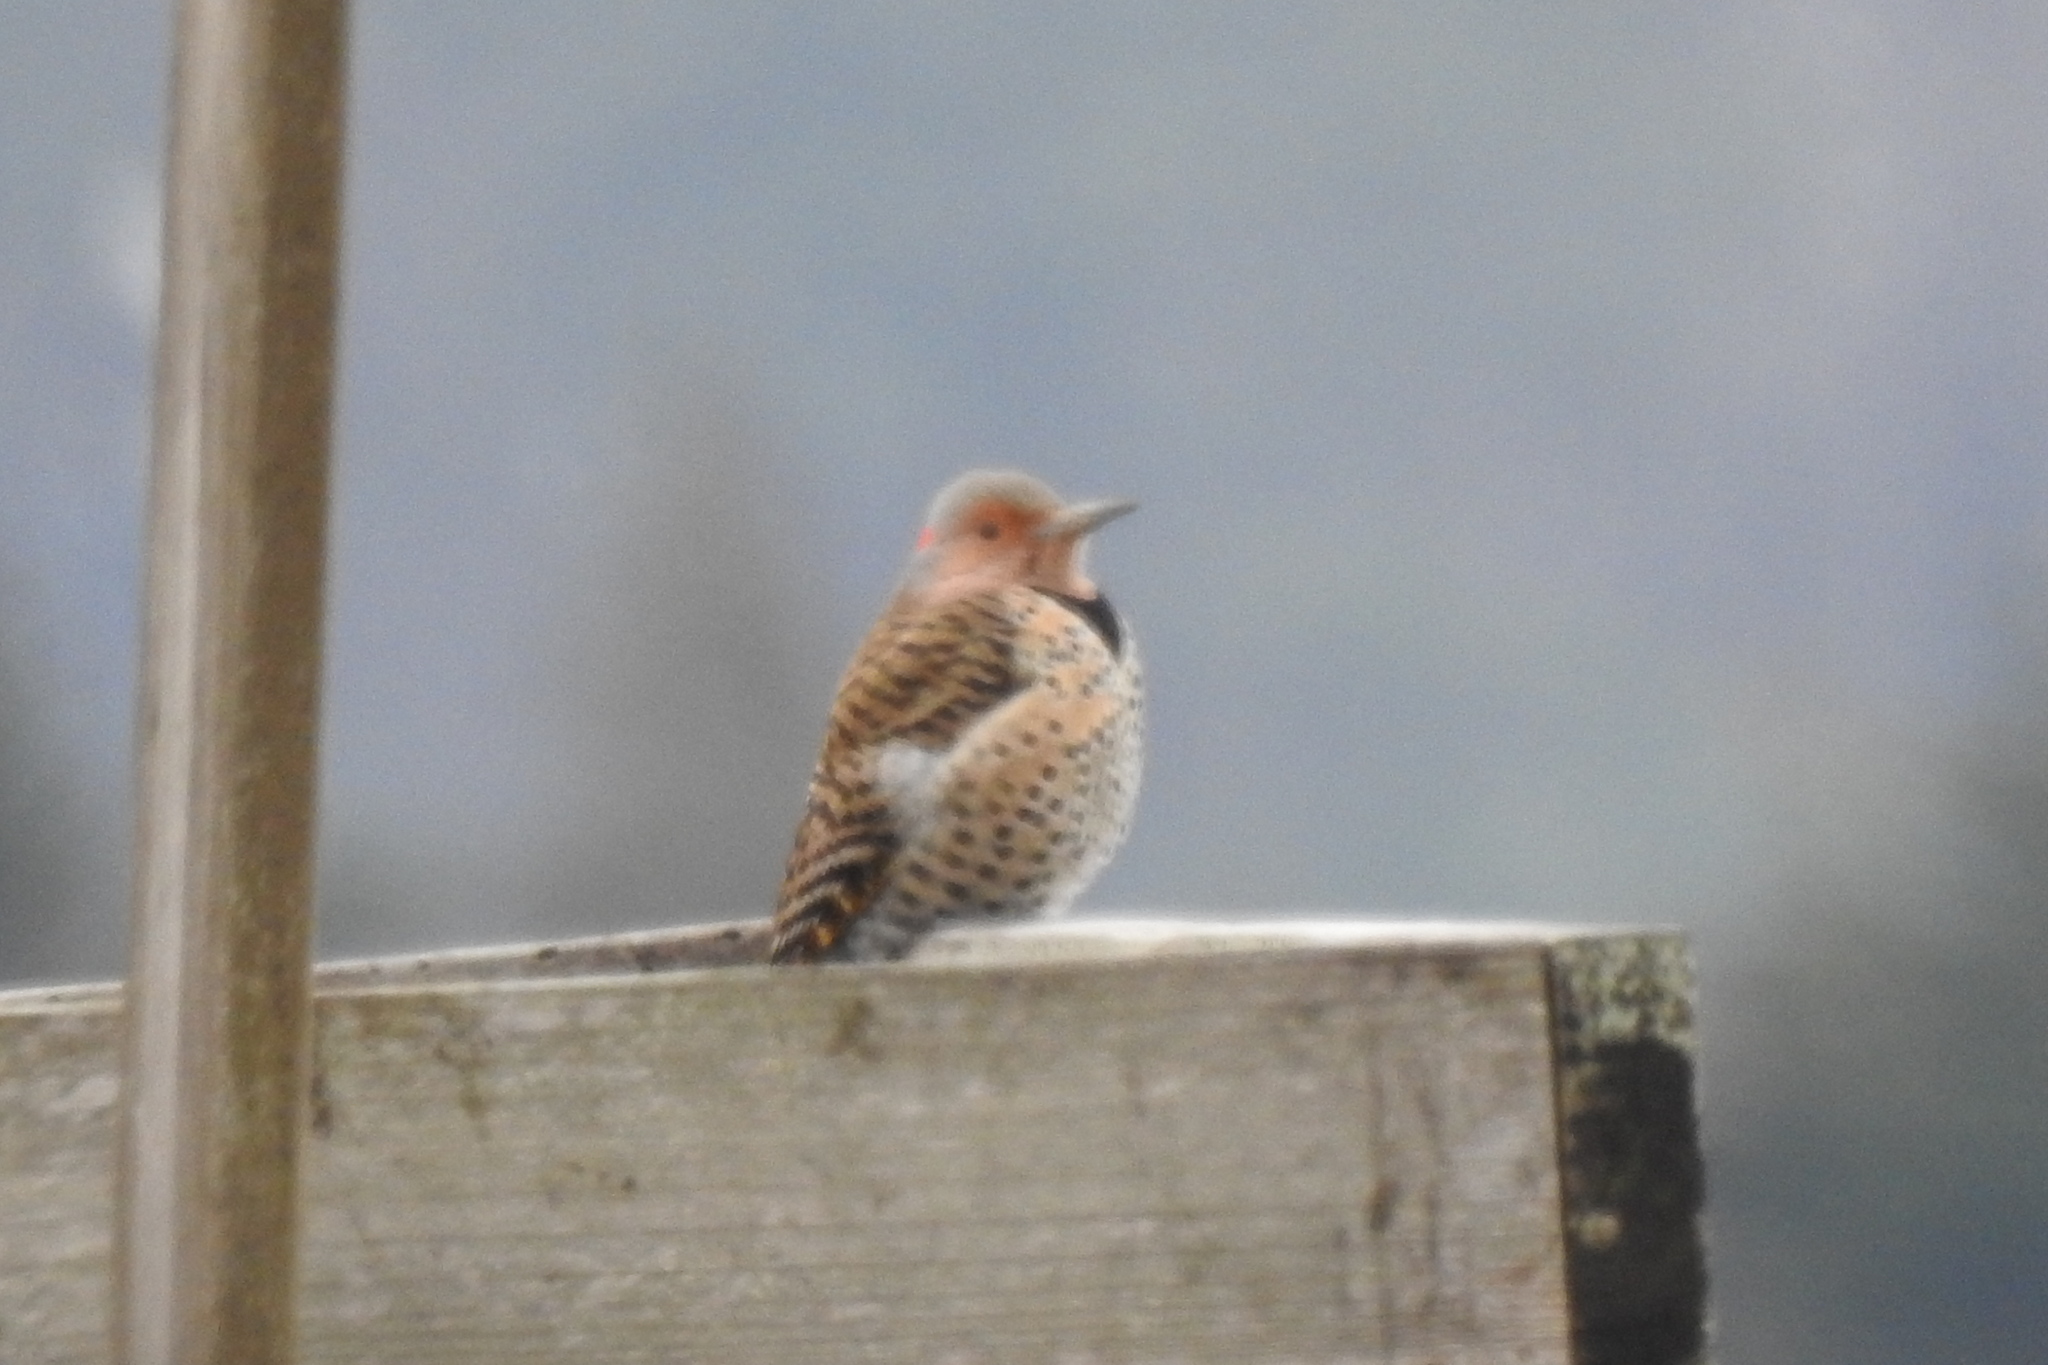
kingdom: Animalia
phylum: Chordata
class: Aves
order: Piciformes
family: Picidae
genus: Colaptes
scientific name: Colaptes auratus
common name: Northern flicker
